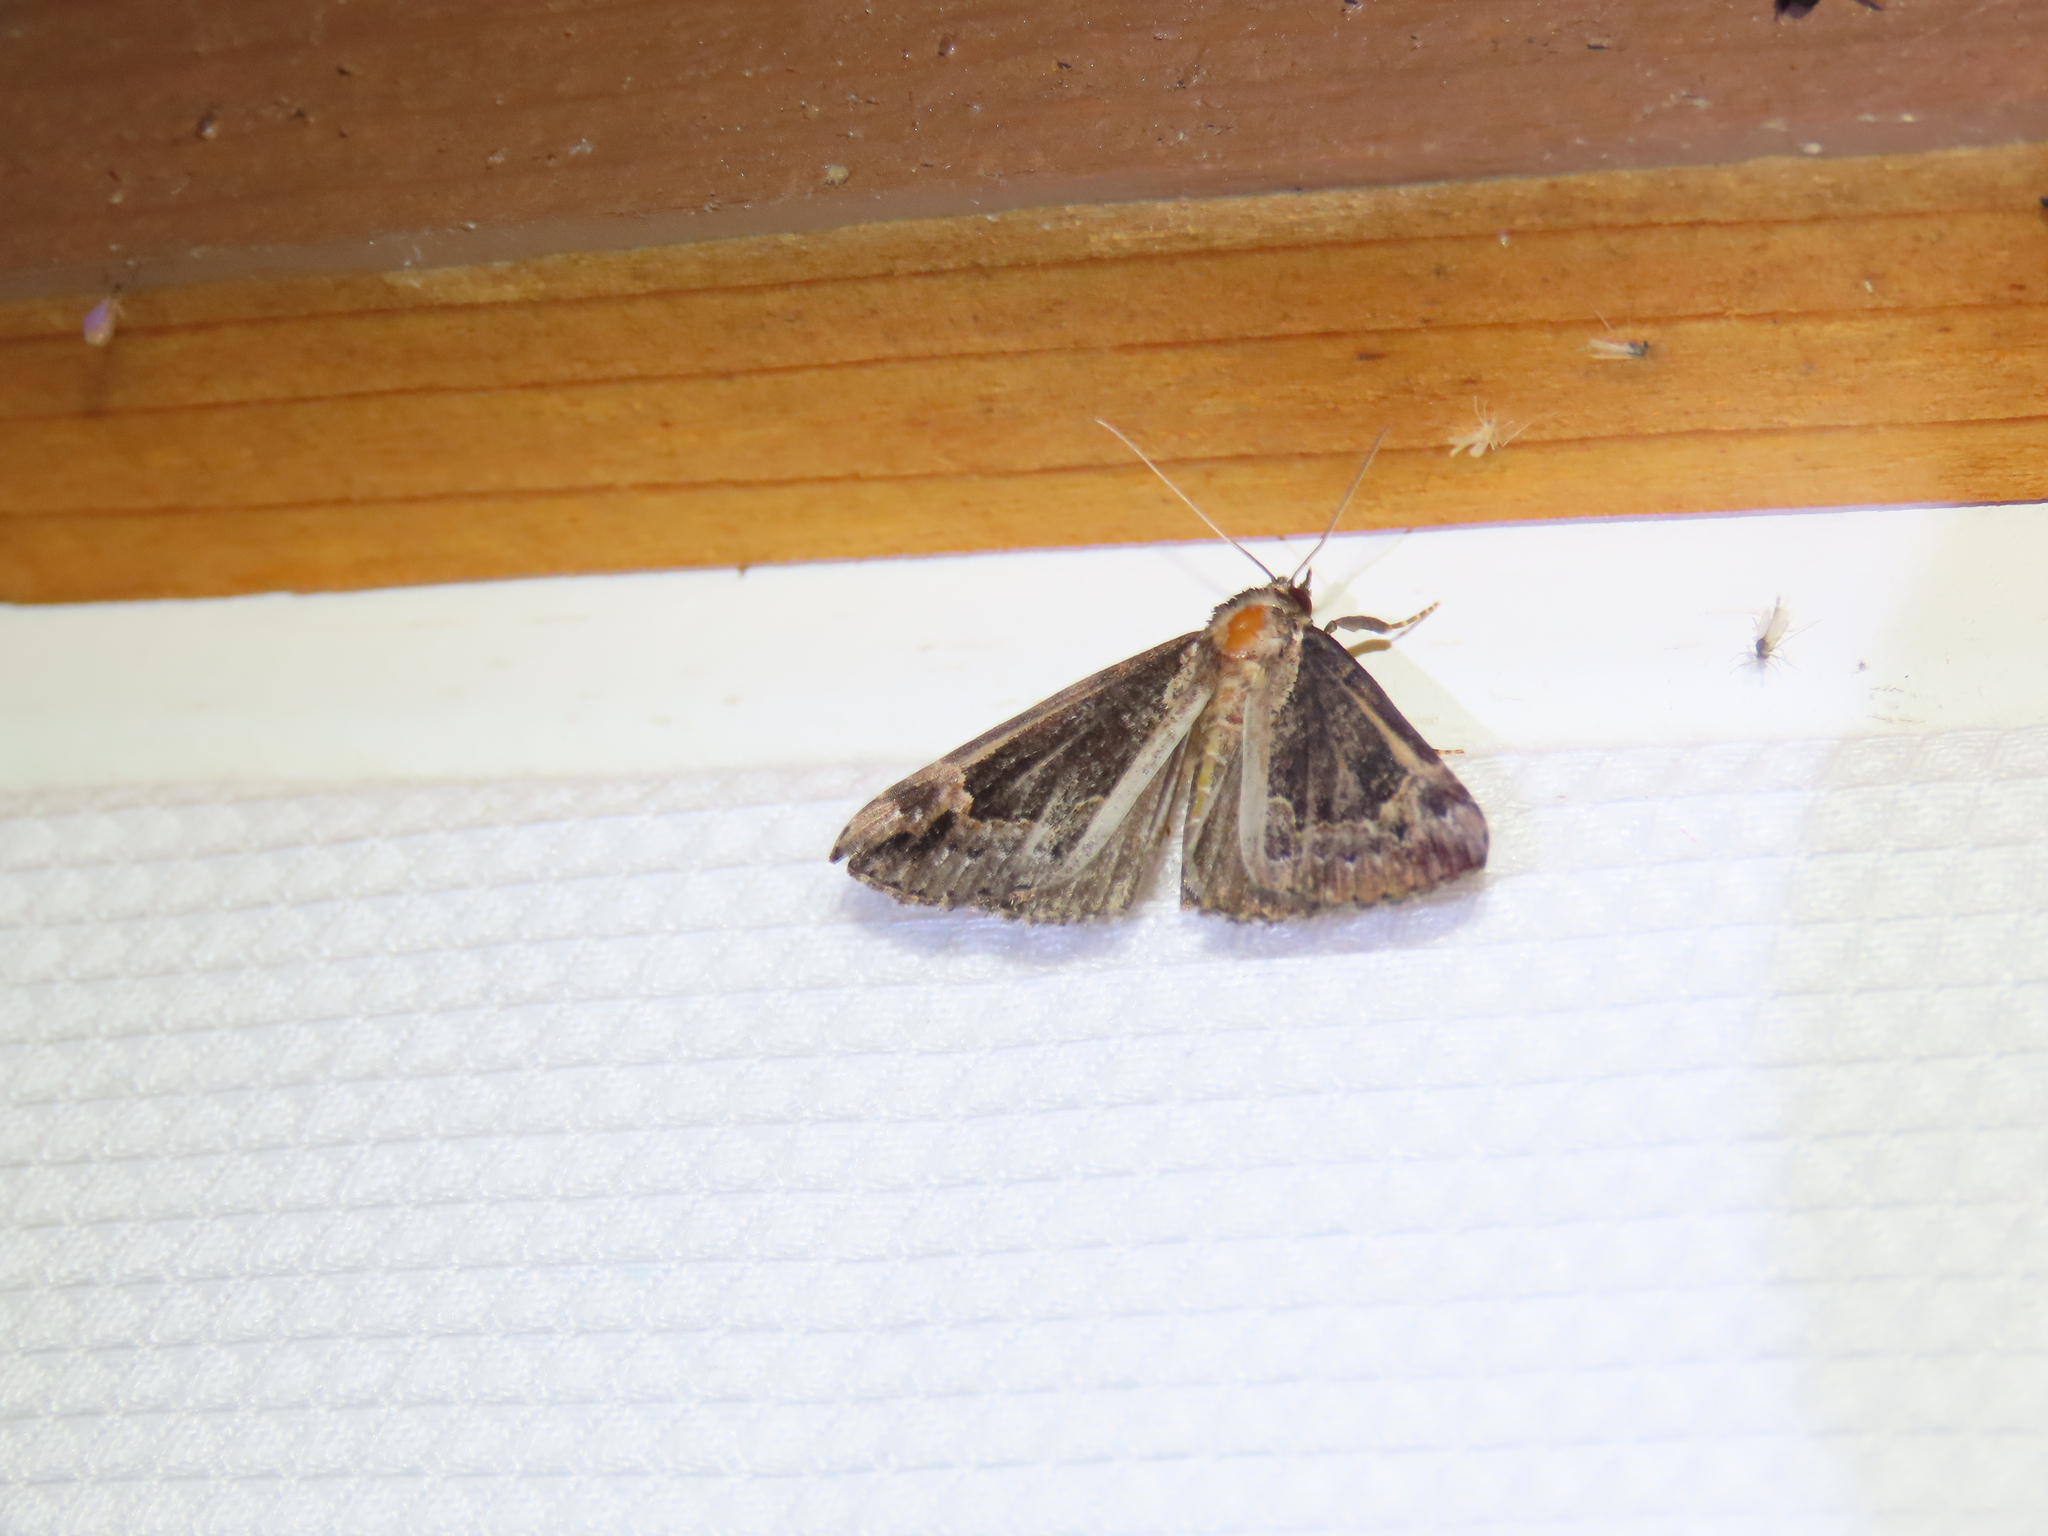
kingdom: Animalia
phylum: Arthropoda
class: Insecta
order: Lepidoptera
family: Erebidae
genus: Hypena
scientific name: Hypena baltimoralis
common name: Baltimore snout
